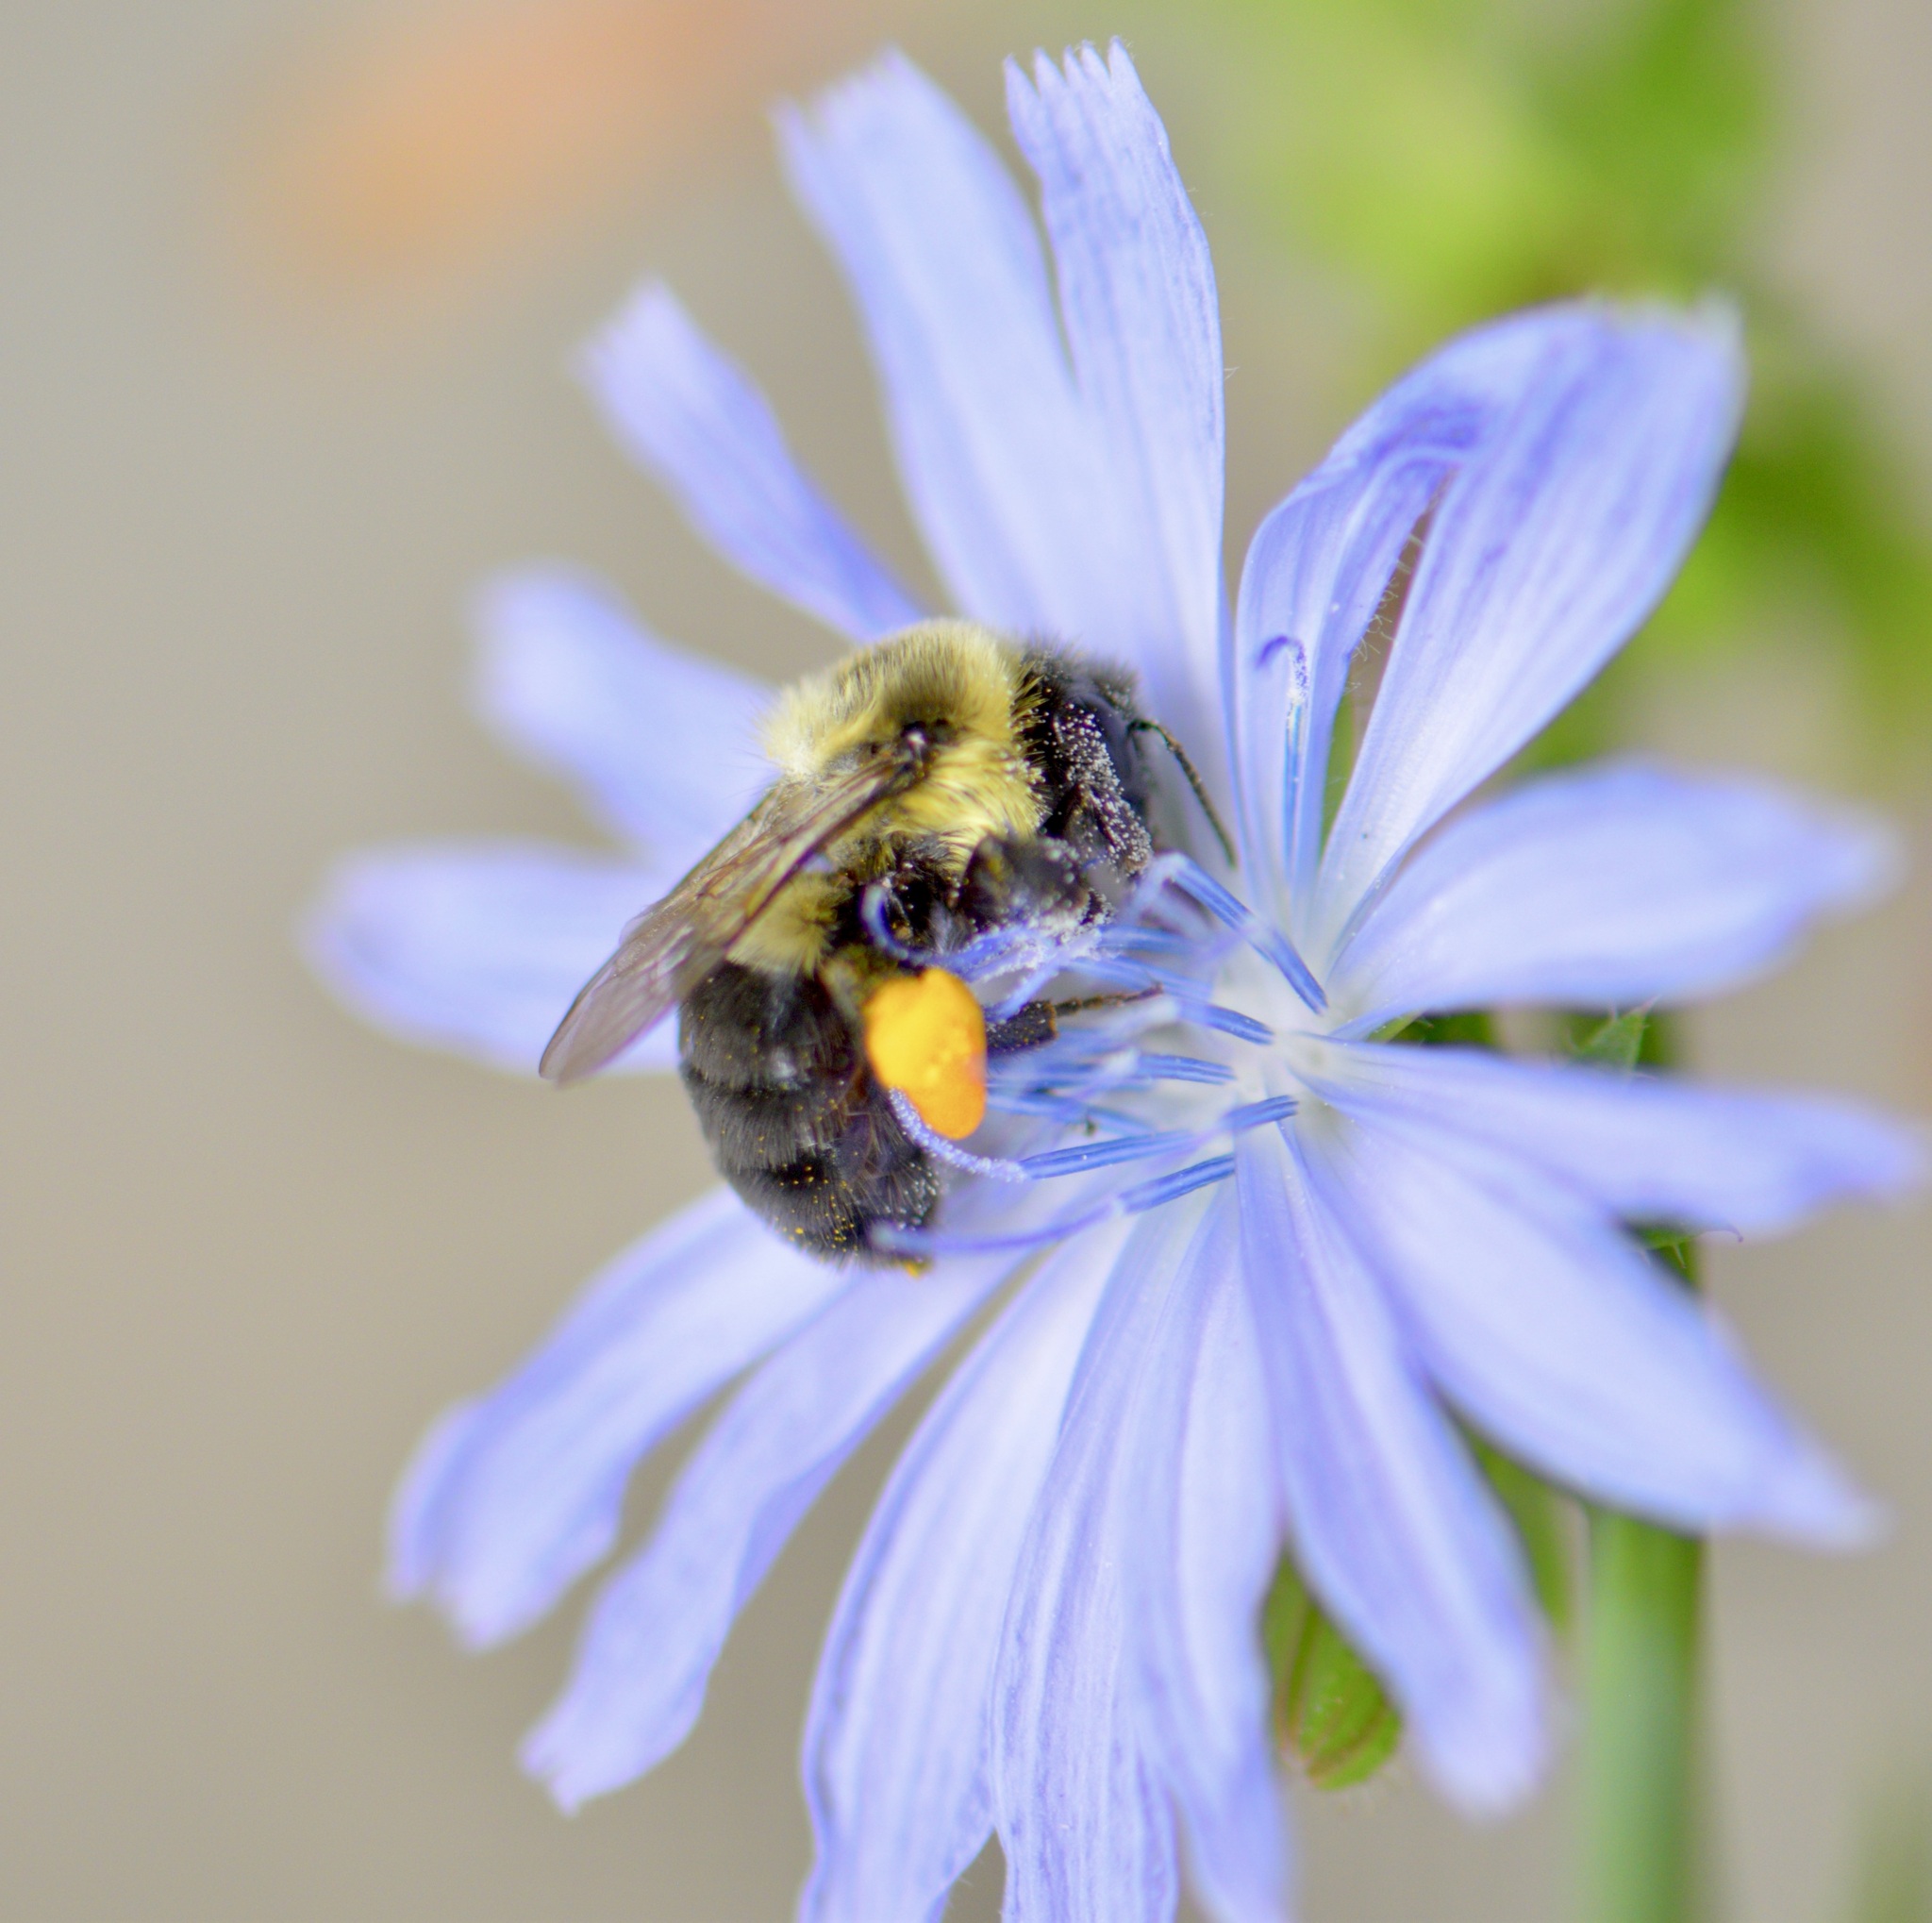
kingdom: Animalia
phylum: Arthropoda
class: Insecta
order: Hymenoptera
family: Apidae
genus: Bombus
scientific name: Bombus impatiens
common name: Common eastern bumble bee
